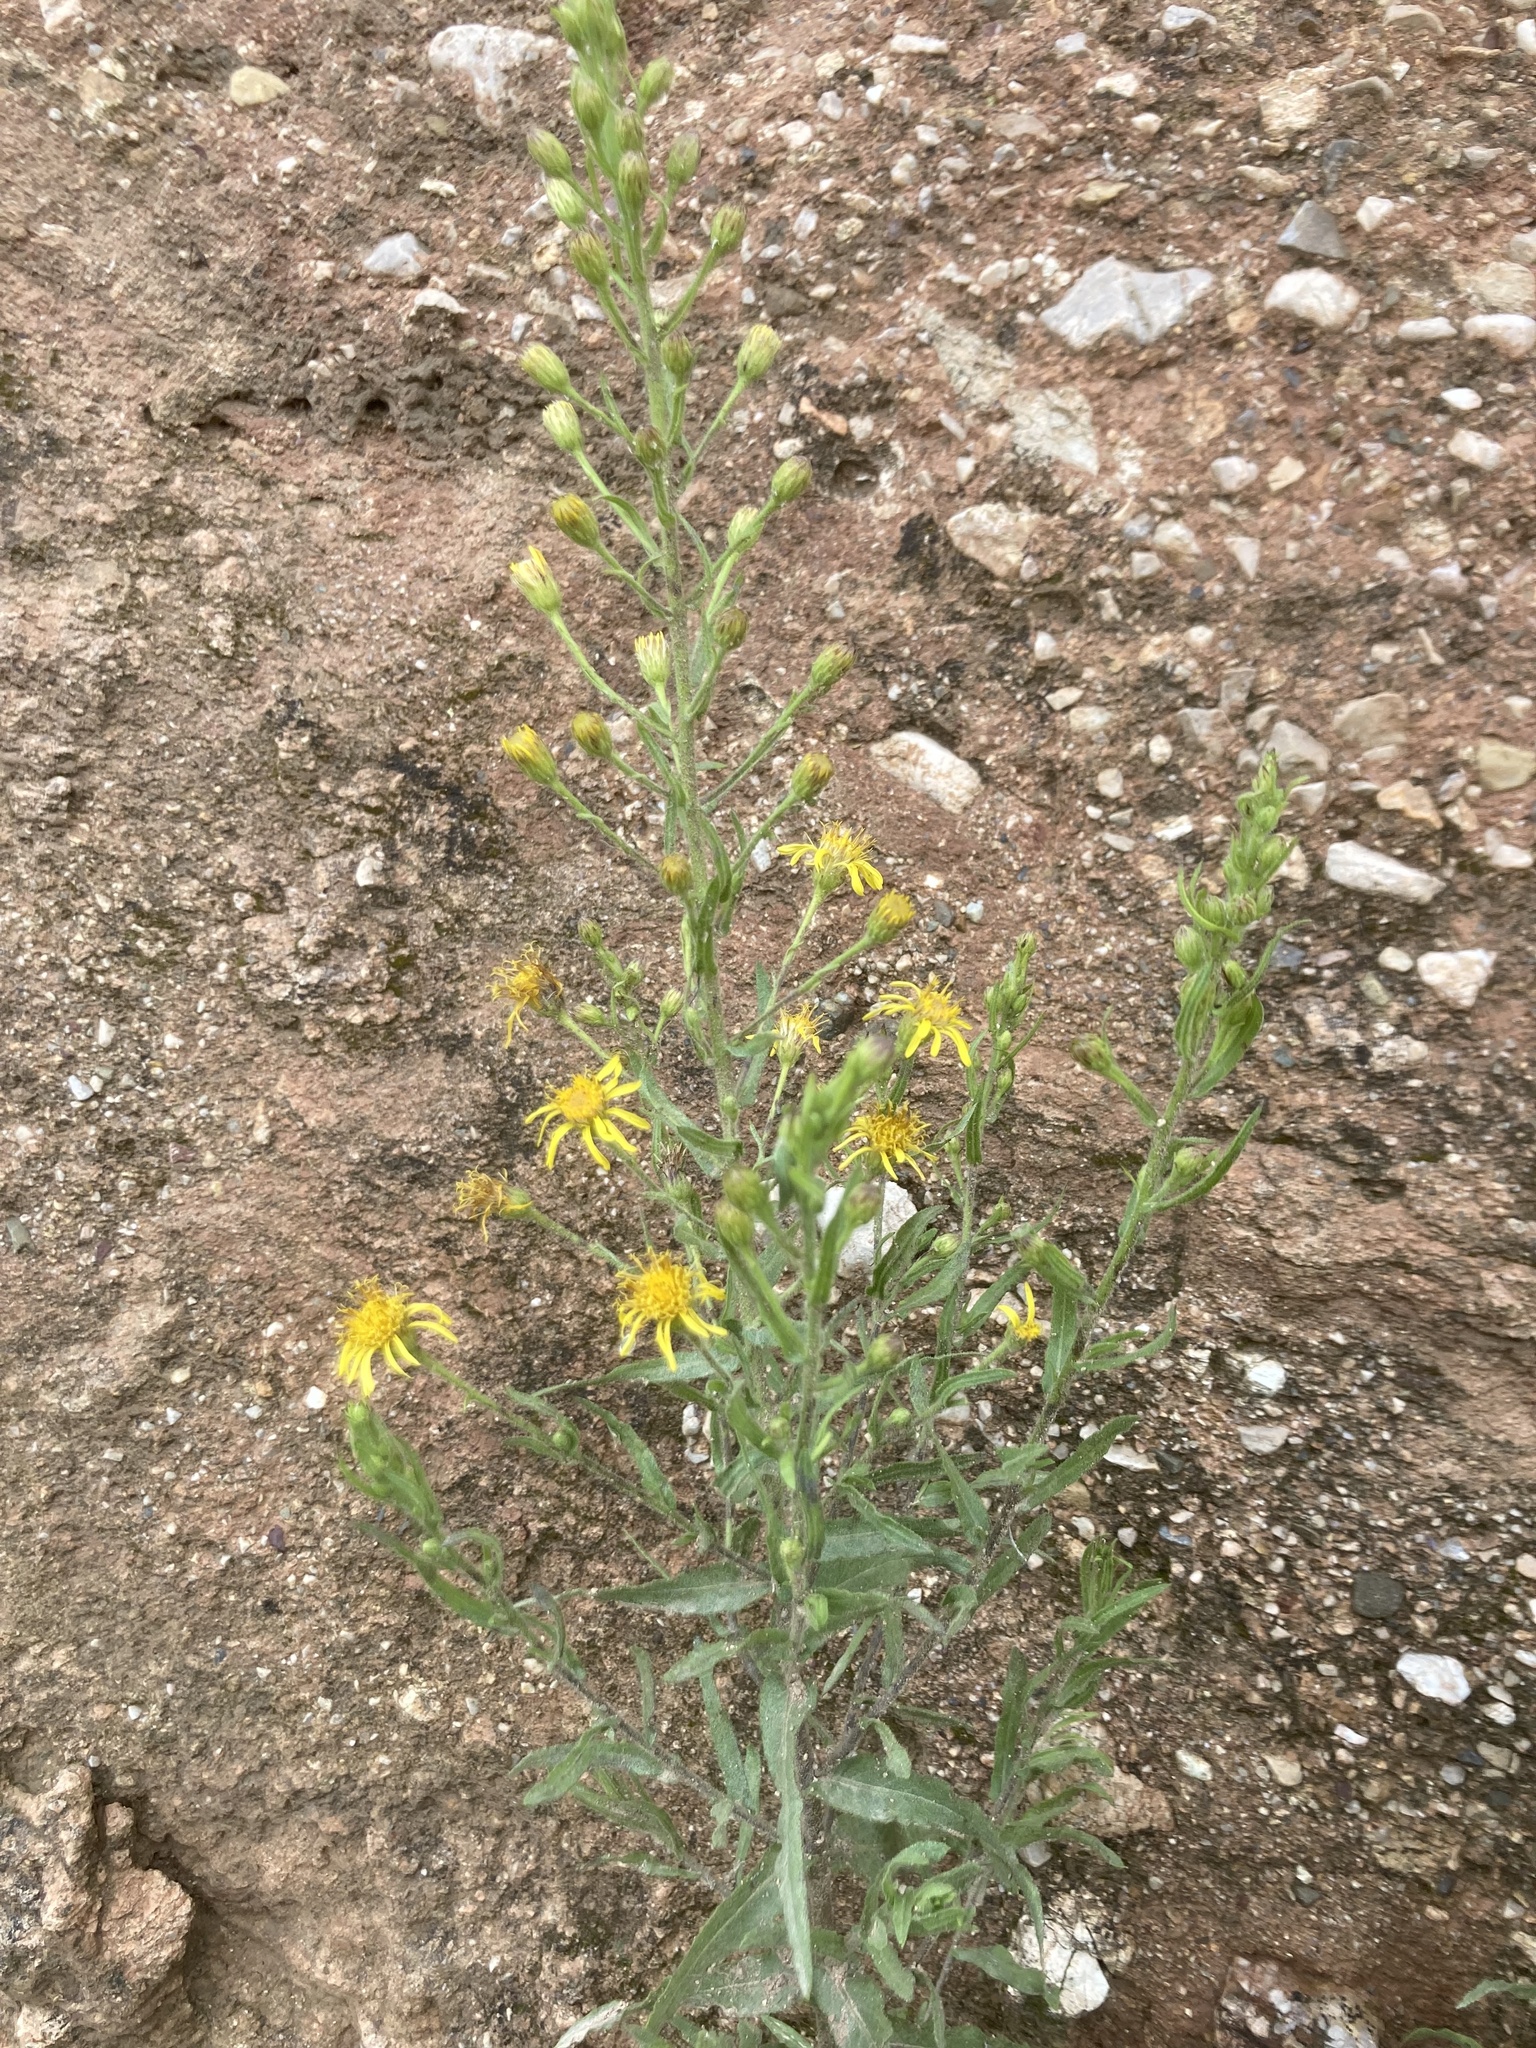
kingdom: Plantae
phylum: Tracheophyta
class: Magnoliopsida
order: Asterales
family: Asteraceae
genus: Dittrichia
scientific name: Dittrichia viscosa
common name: Woody fleabane
